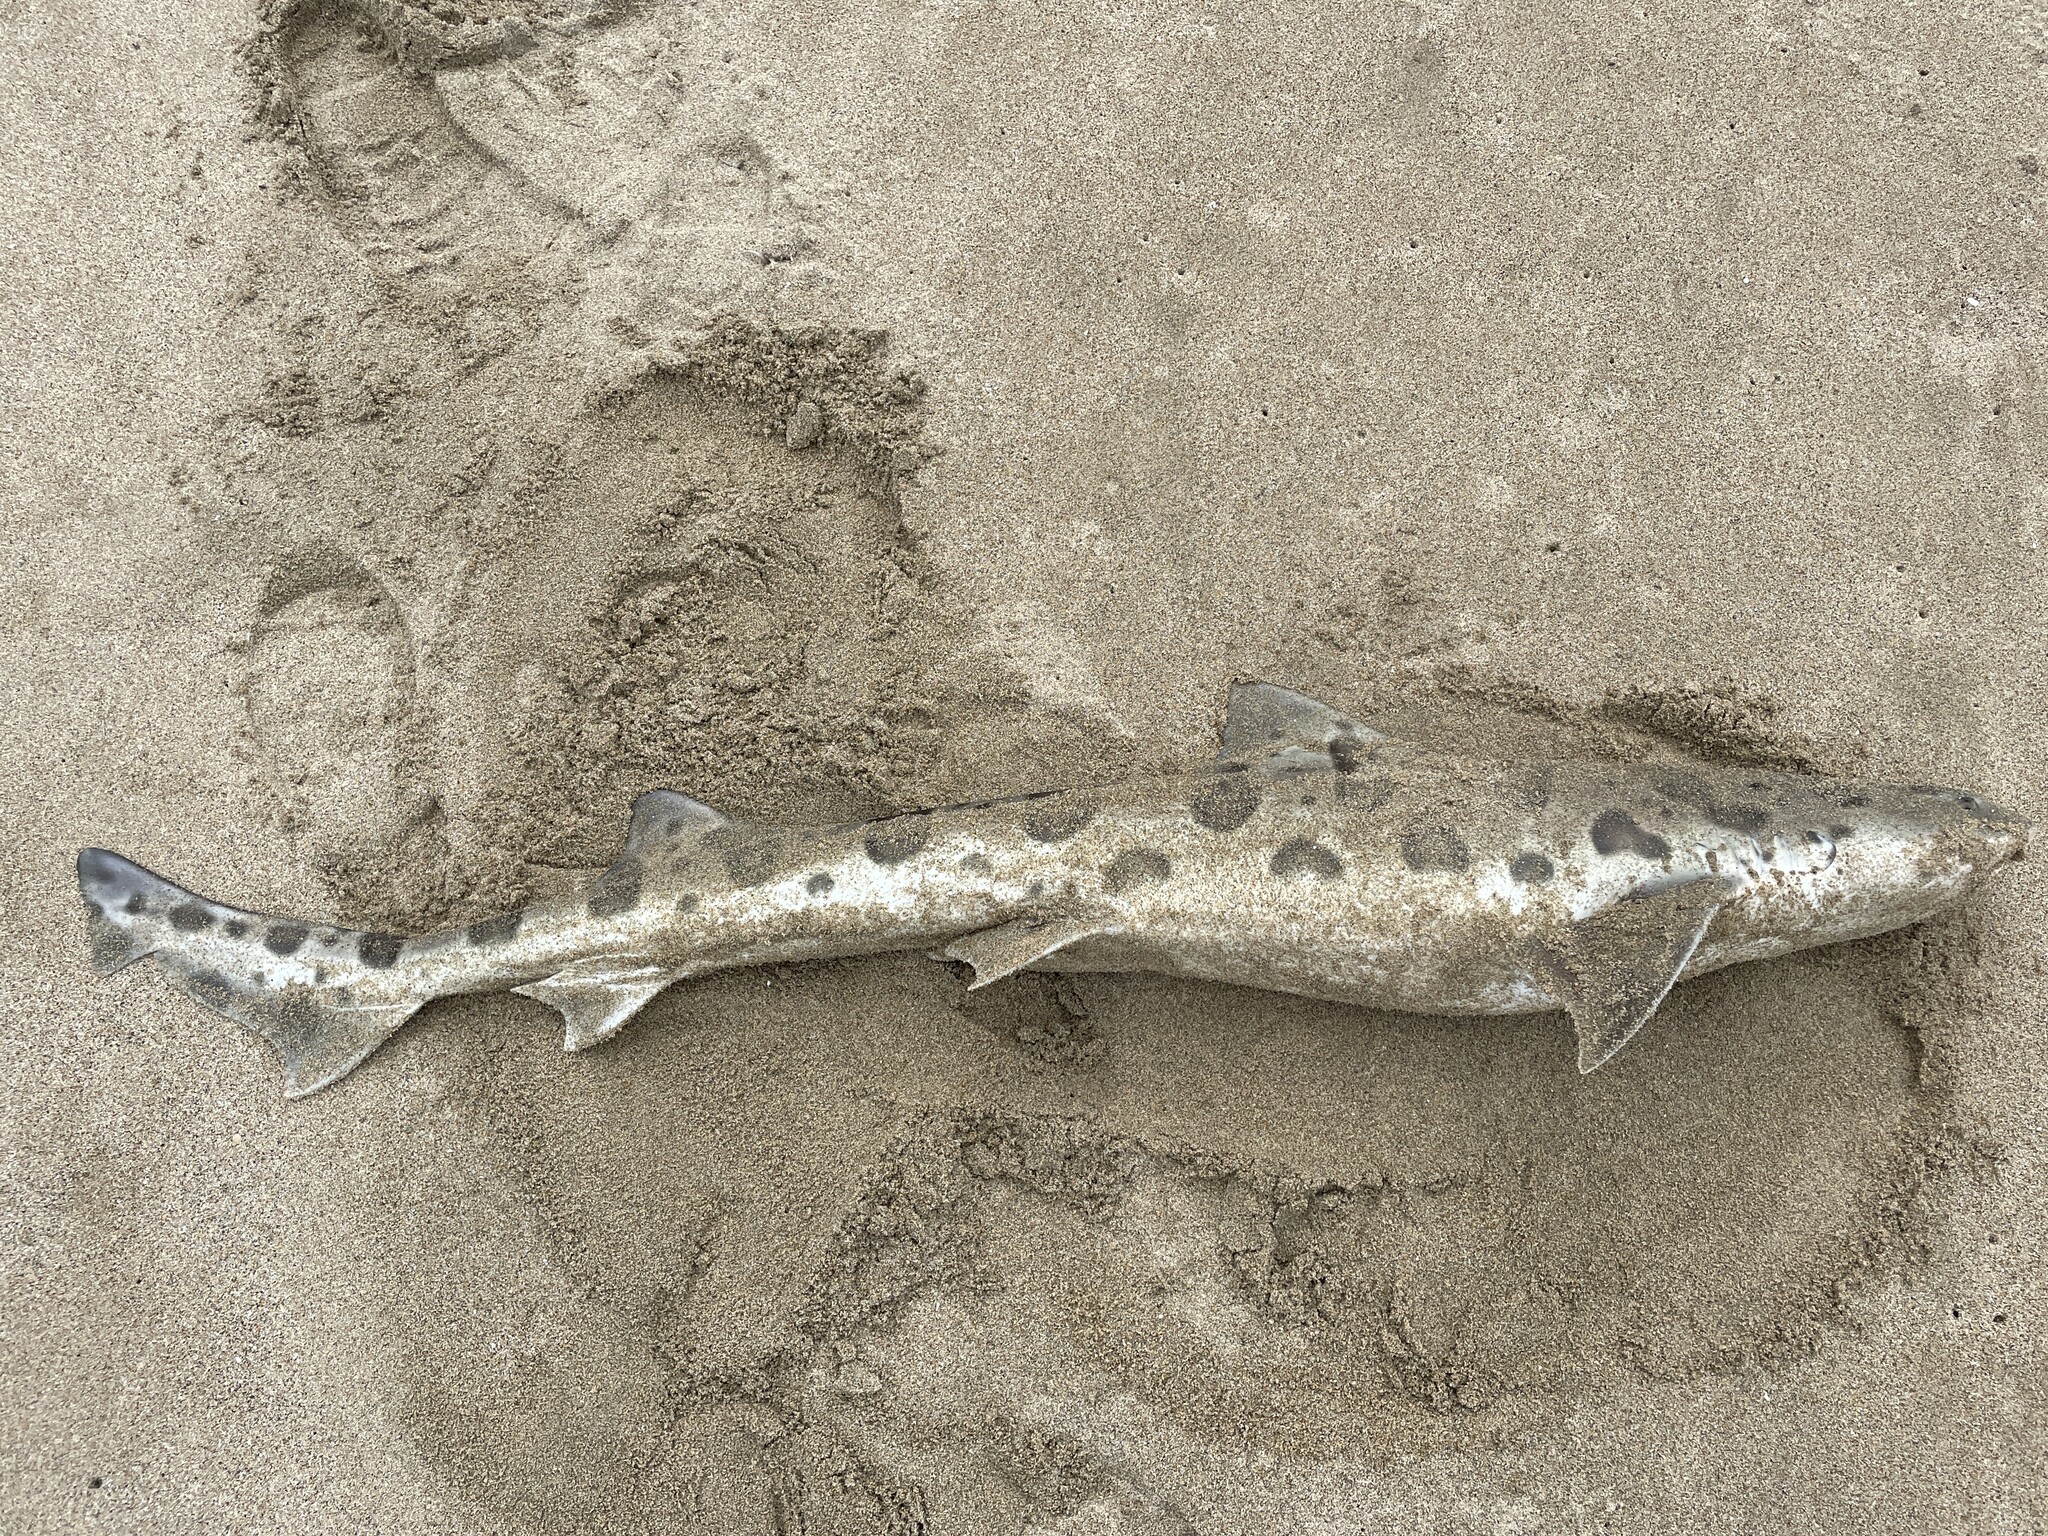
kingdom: Animalia
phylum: Chordata
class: Elasmobranchii
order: Carcharhiniformes
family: Triakidae
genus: Triakis
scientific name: Triakis semifasciata
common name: Leopard shark
